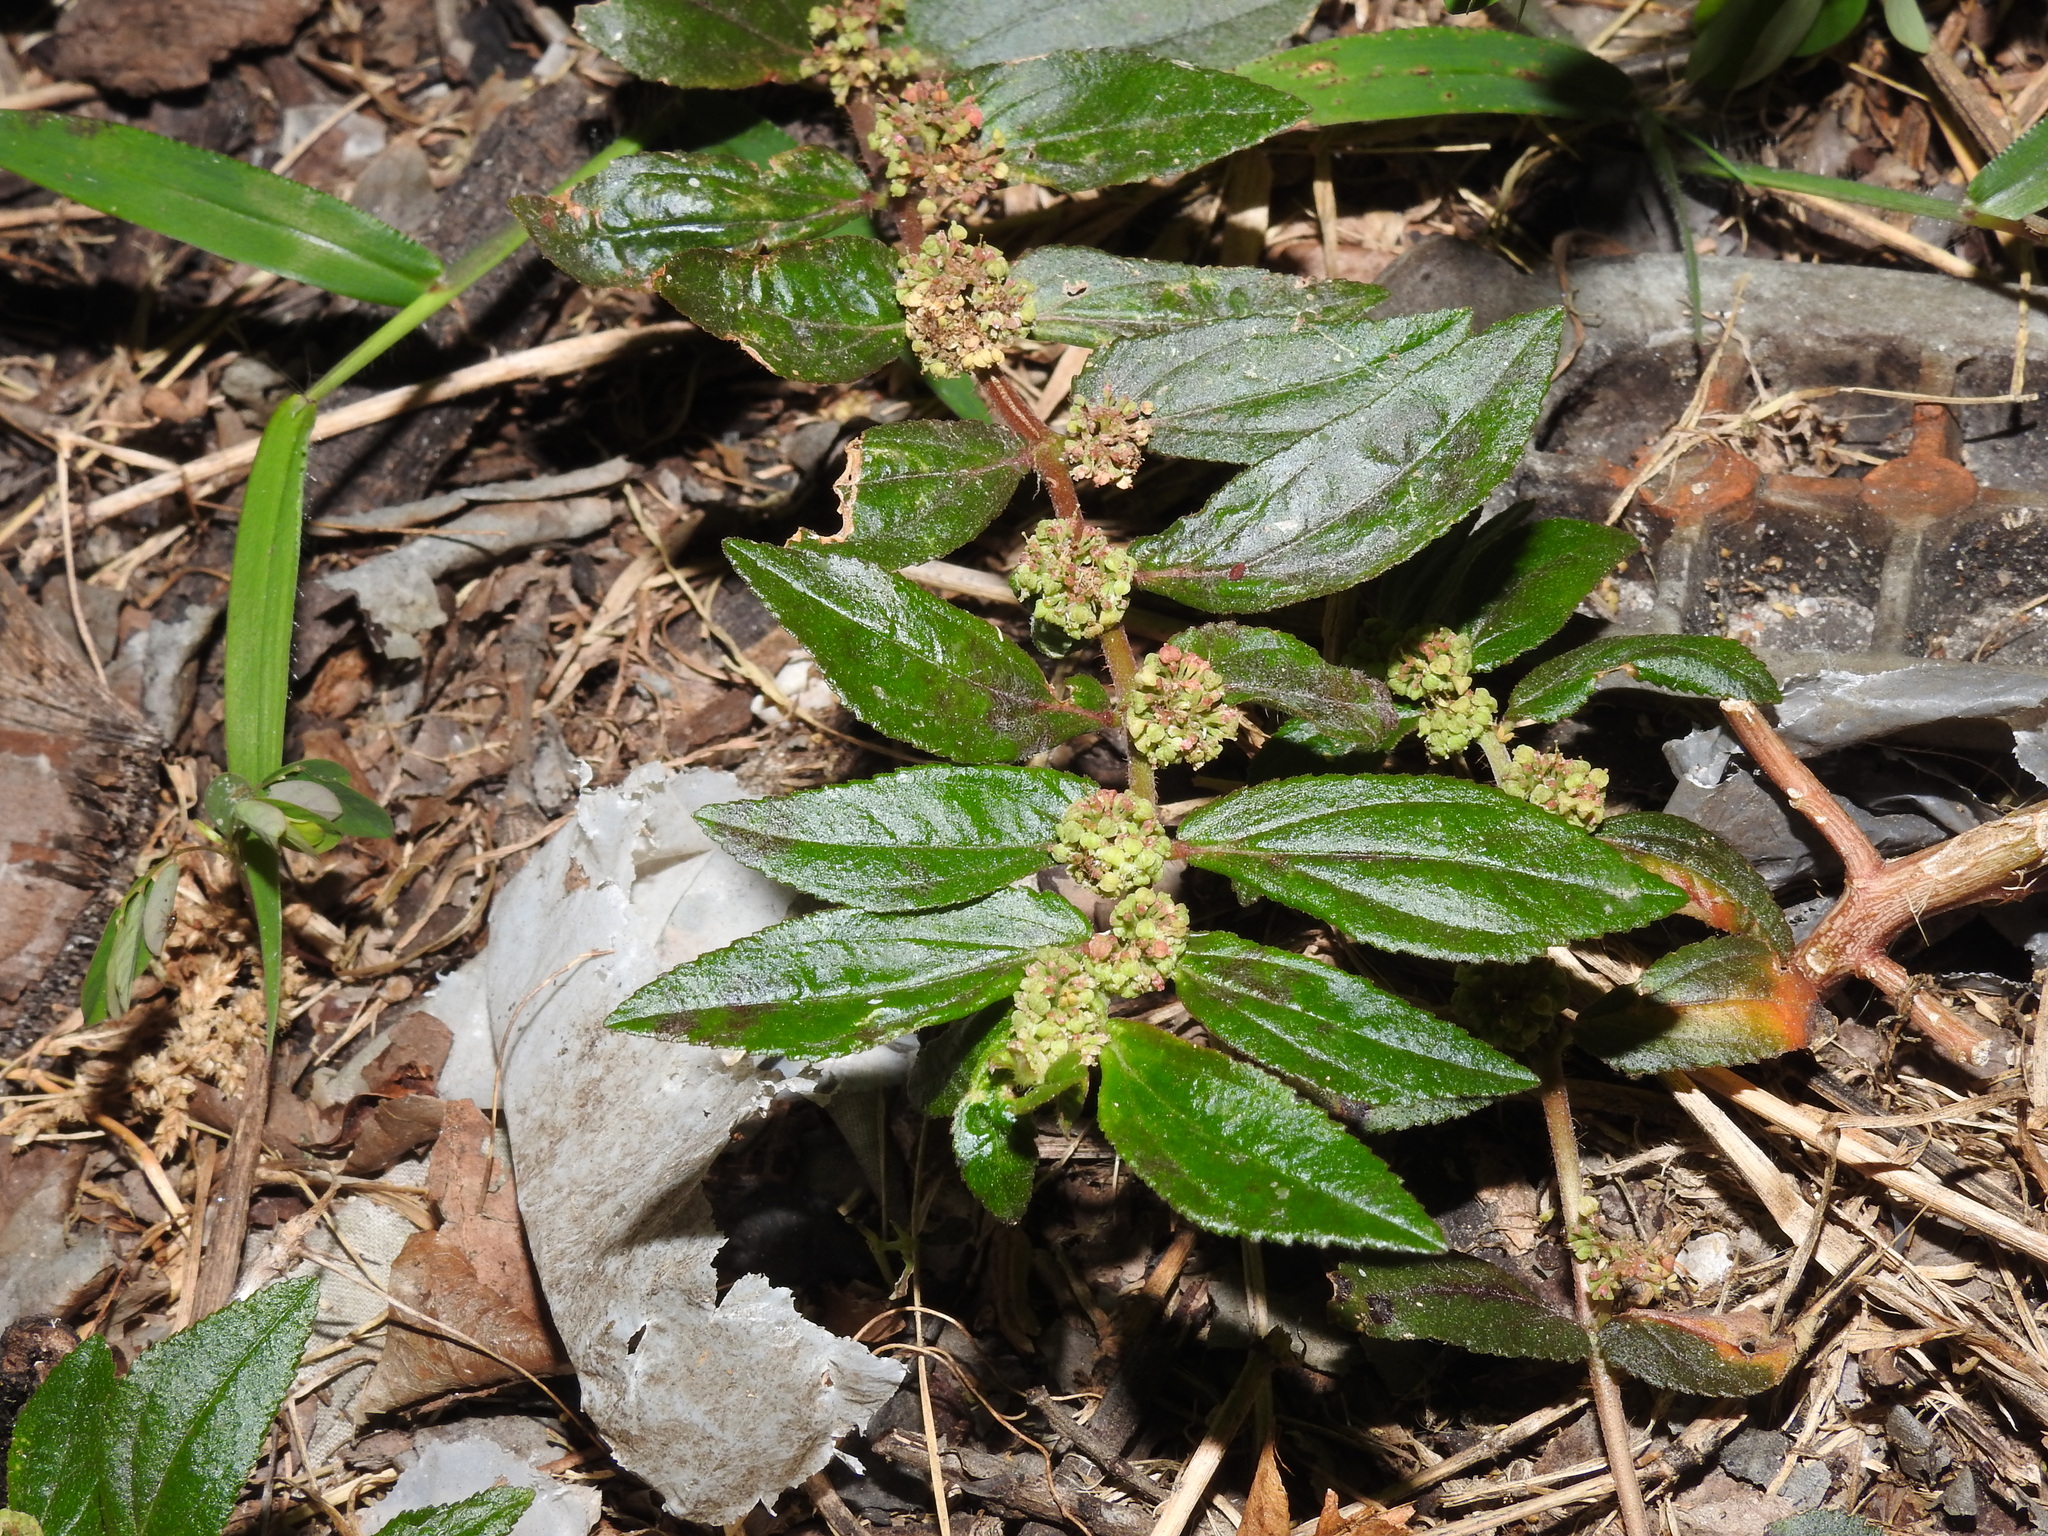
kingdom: Plantae
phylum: Tracheophyta
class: Magnoliopsida
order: Malpighiales
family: Euphorbiaceae
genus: Euphorbia
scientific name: Euphorbia hirta
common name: Pillpod sandmat
